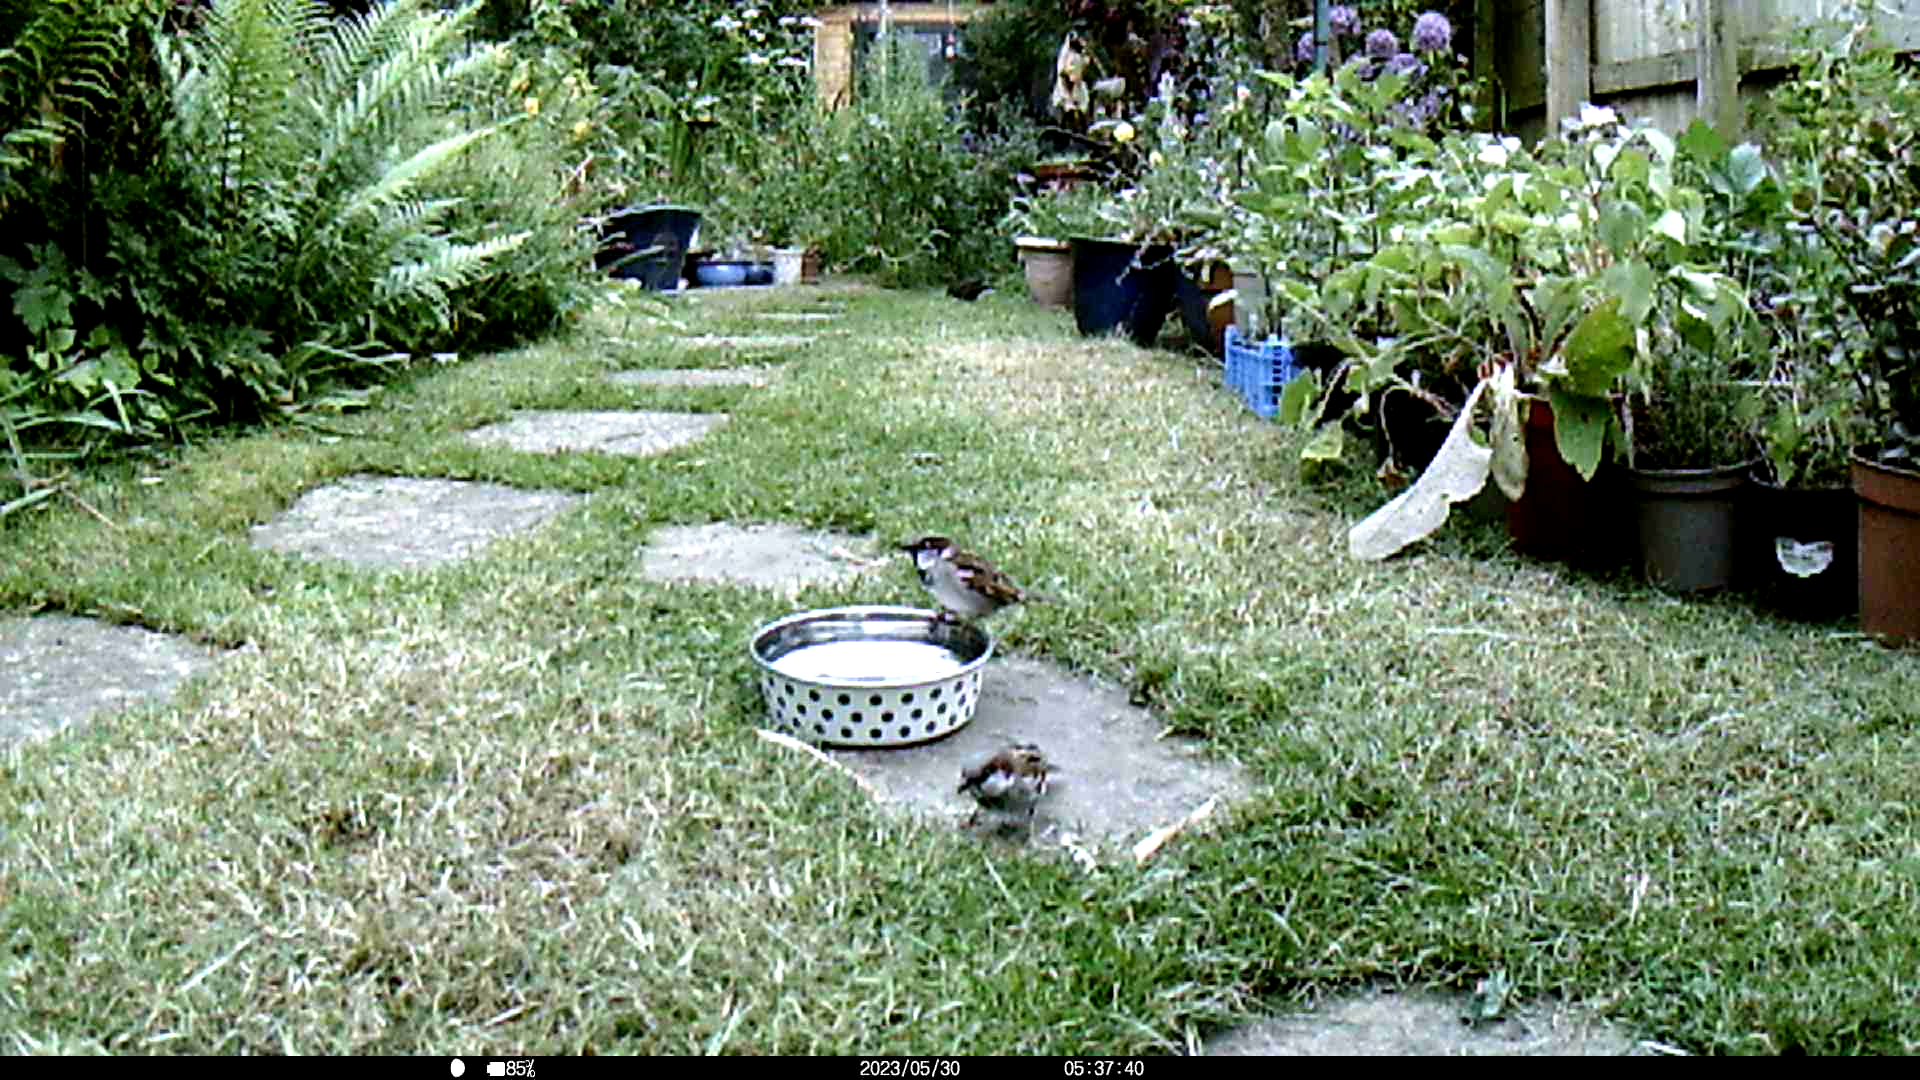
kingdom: Animalia
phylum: Chordata
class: Aves
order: Passeriformes
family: Passeridae
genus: Passer
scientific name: Passer domesticus
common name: House sparrow
